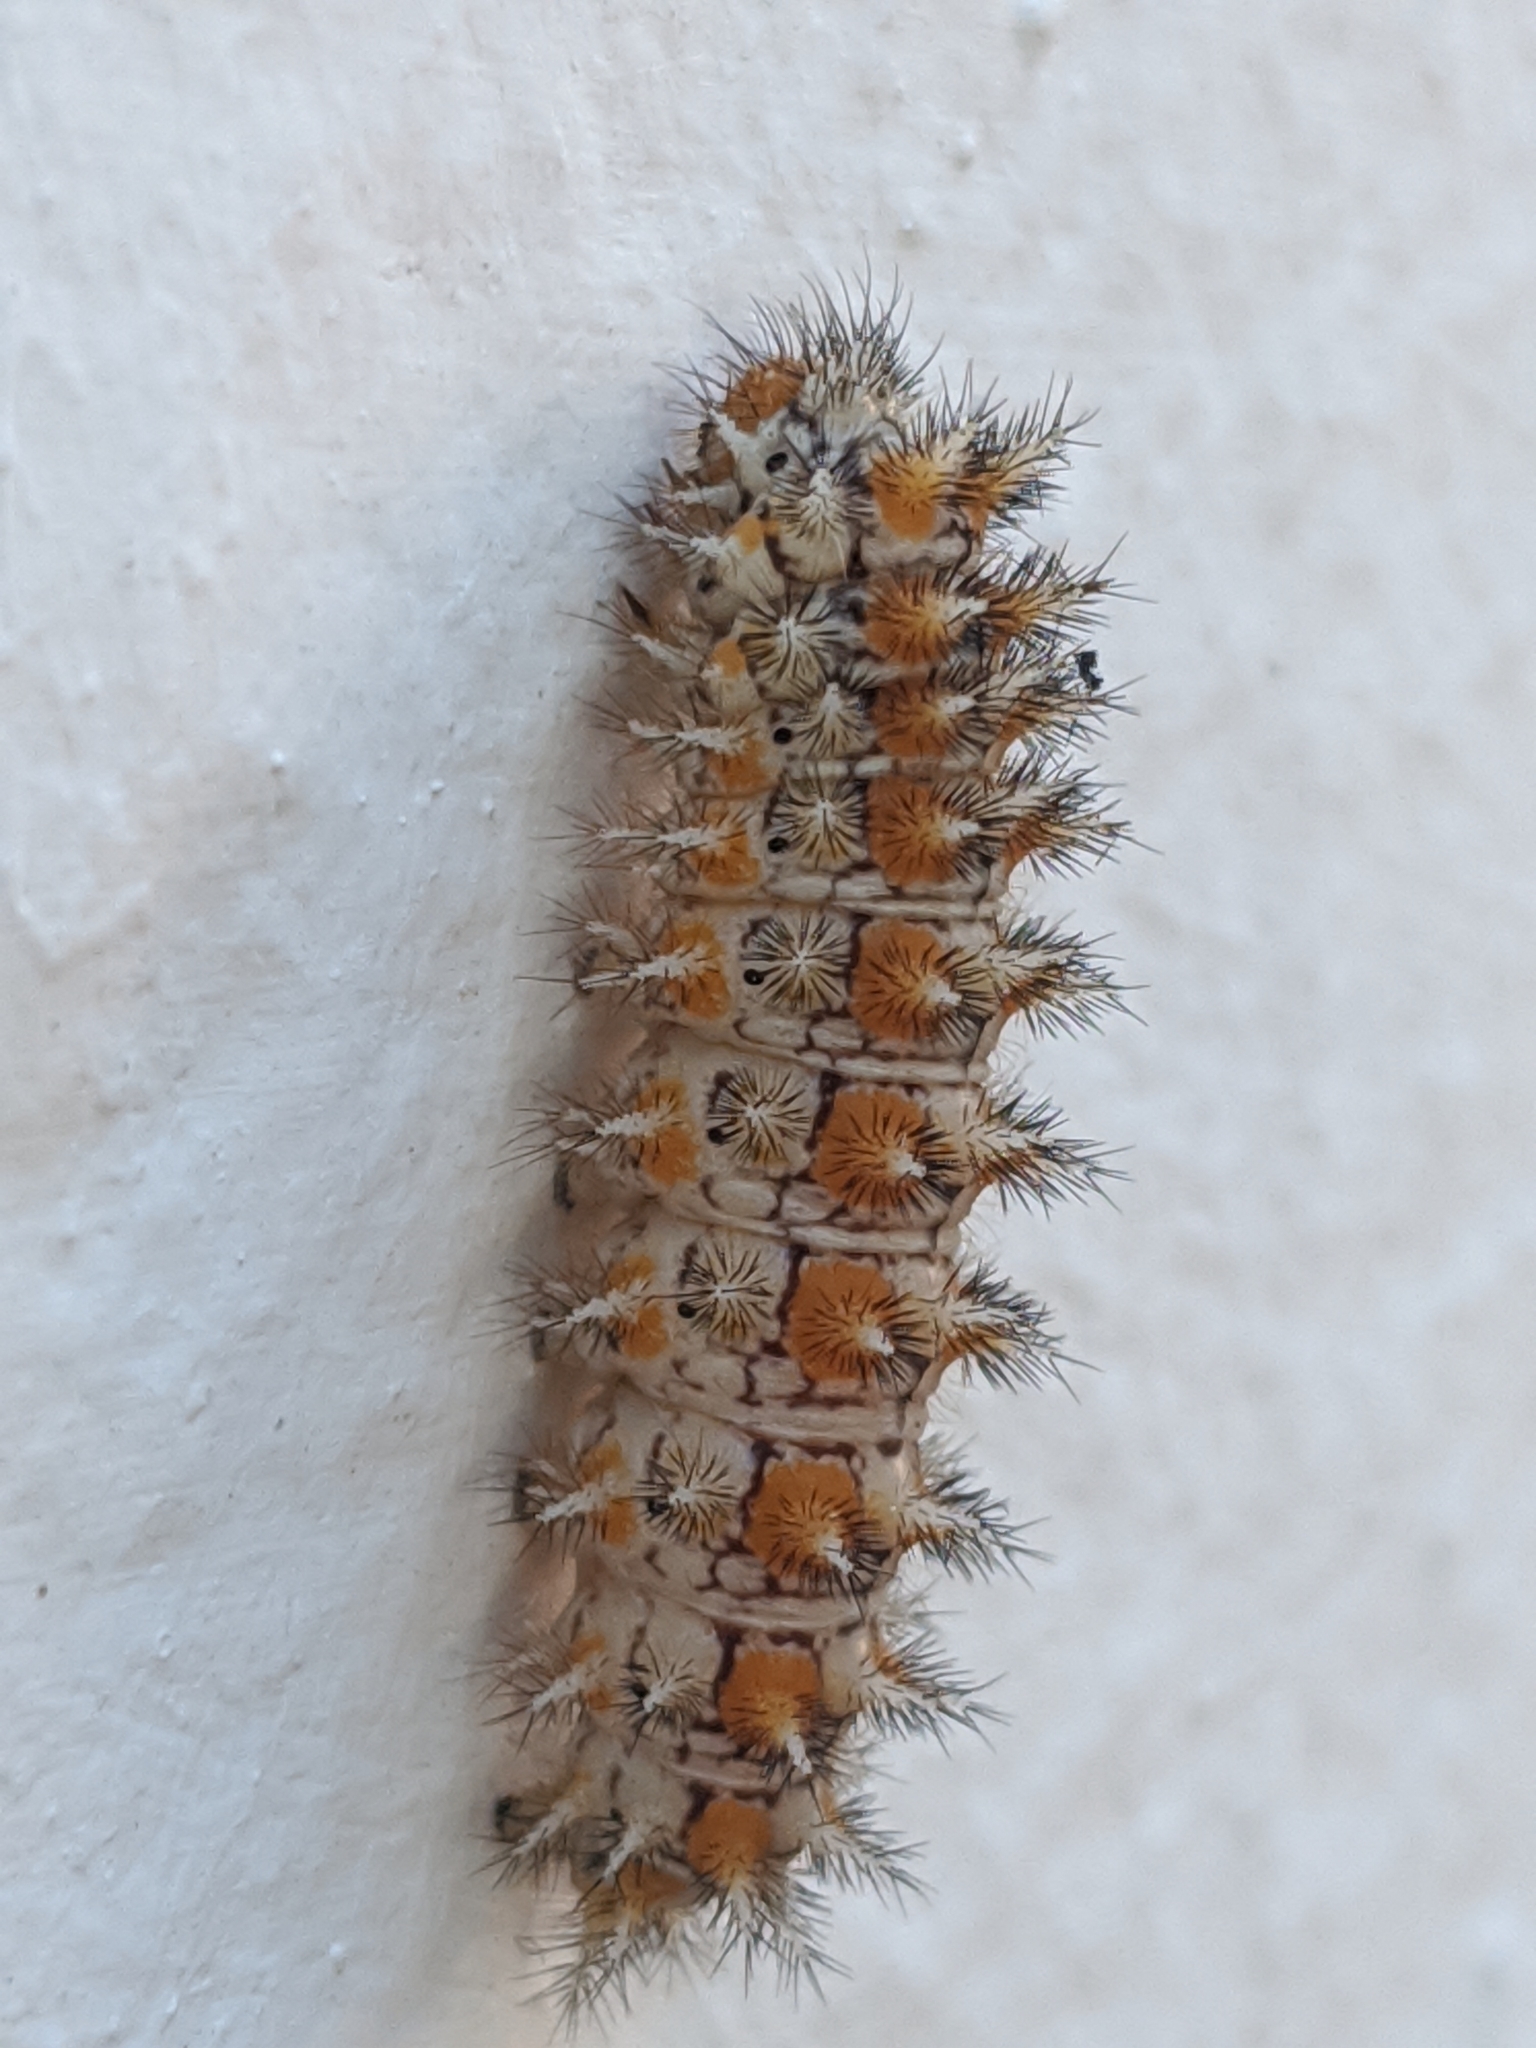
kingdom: Animalia
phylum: Arthropoda
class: Insecta
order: Lepidoptera
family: Nymphalidae
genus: Melitaea
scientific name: Melitaea didyma
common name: Spotted fritillary
